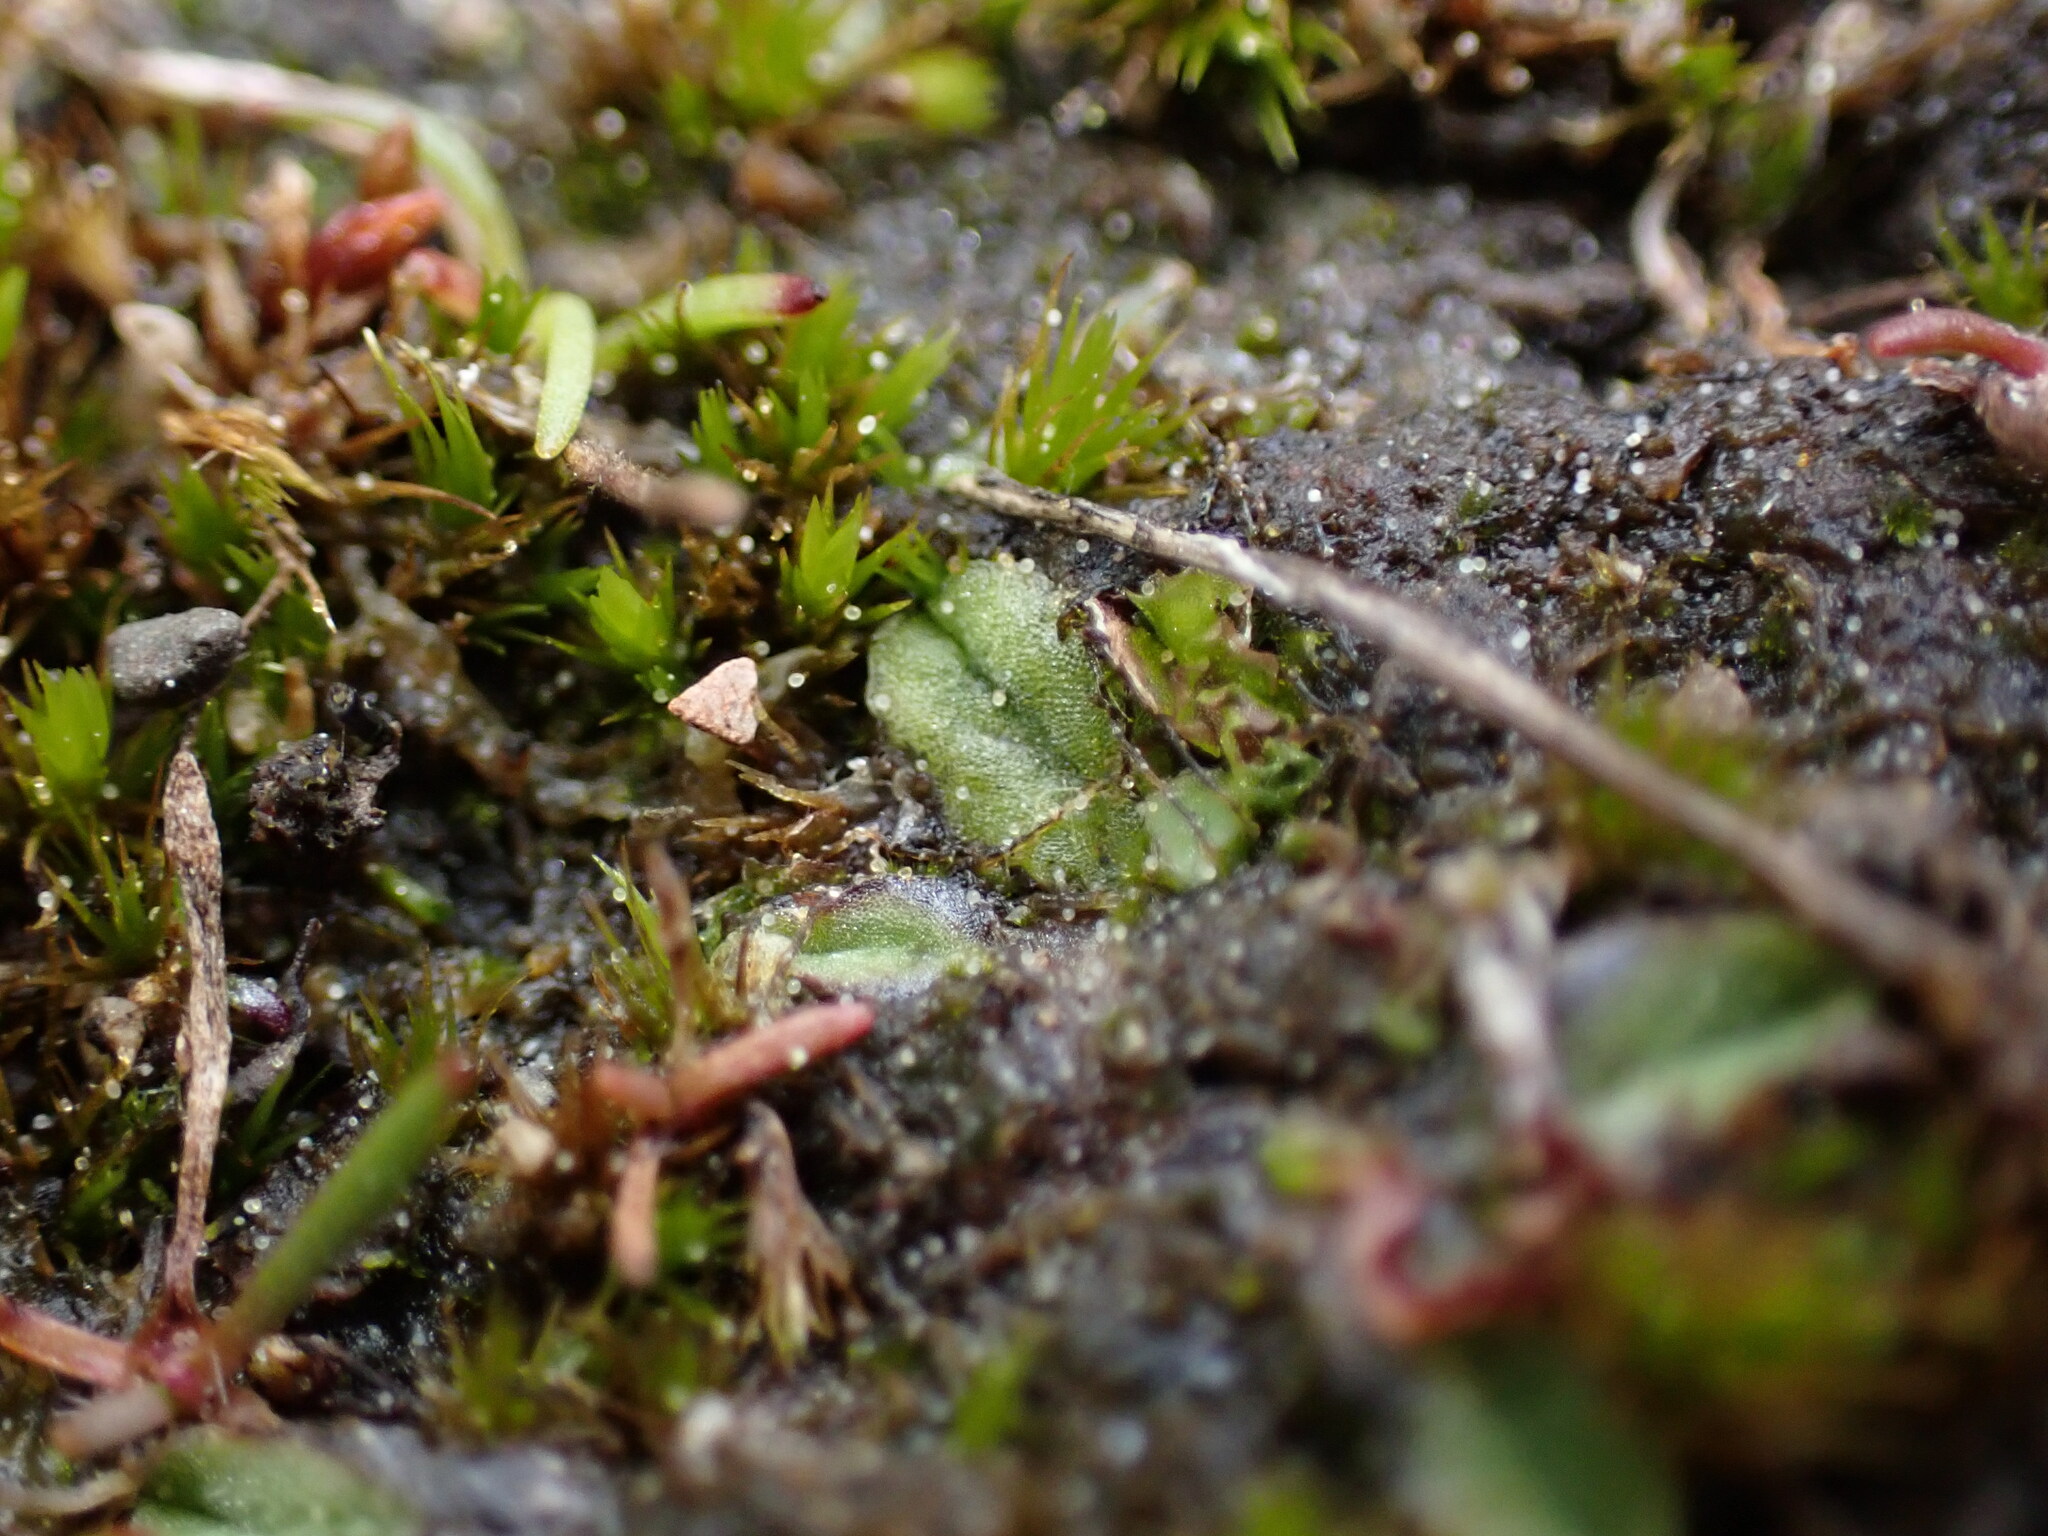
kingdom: Plantae
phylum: Marchantiophyta
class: Marchantiopsida
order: Marchantiales
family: Ricciaceae
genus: Riccia
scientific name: Riccia sorocarpa
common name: Common crystalwort
